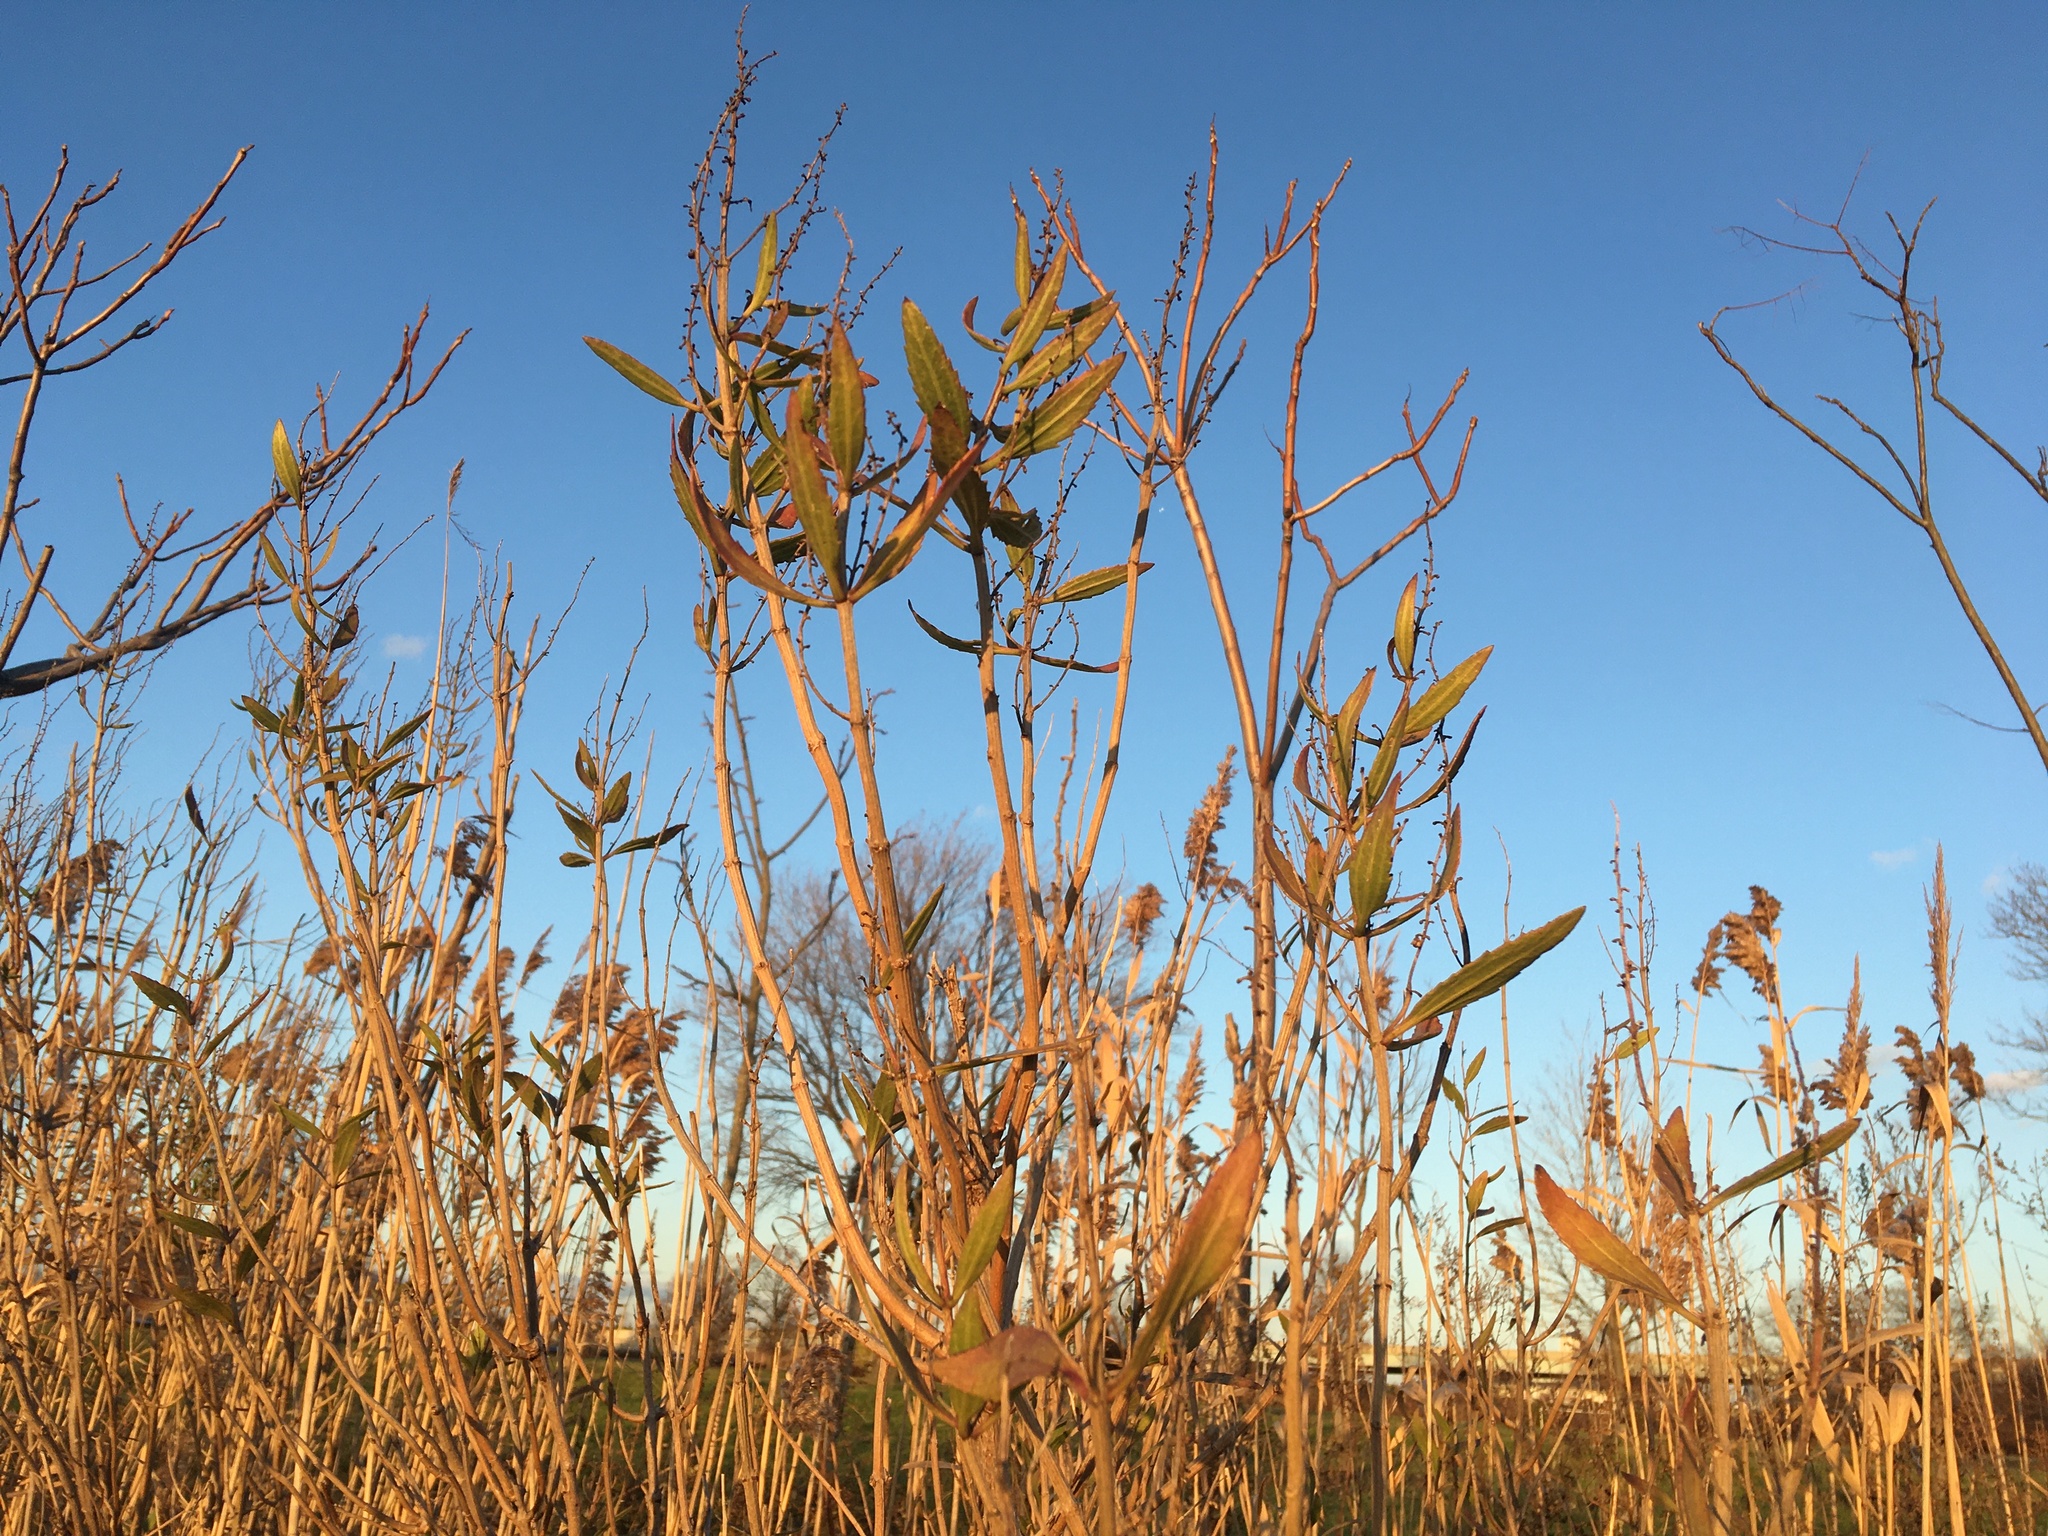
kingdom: Plantae
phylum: Tracheophyta
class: Magnoliopsida
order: Asterales
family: Asteraceae
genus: Iva
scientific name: Iva frutescens
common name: Big-leaved marsh-elder
